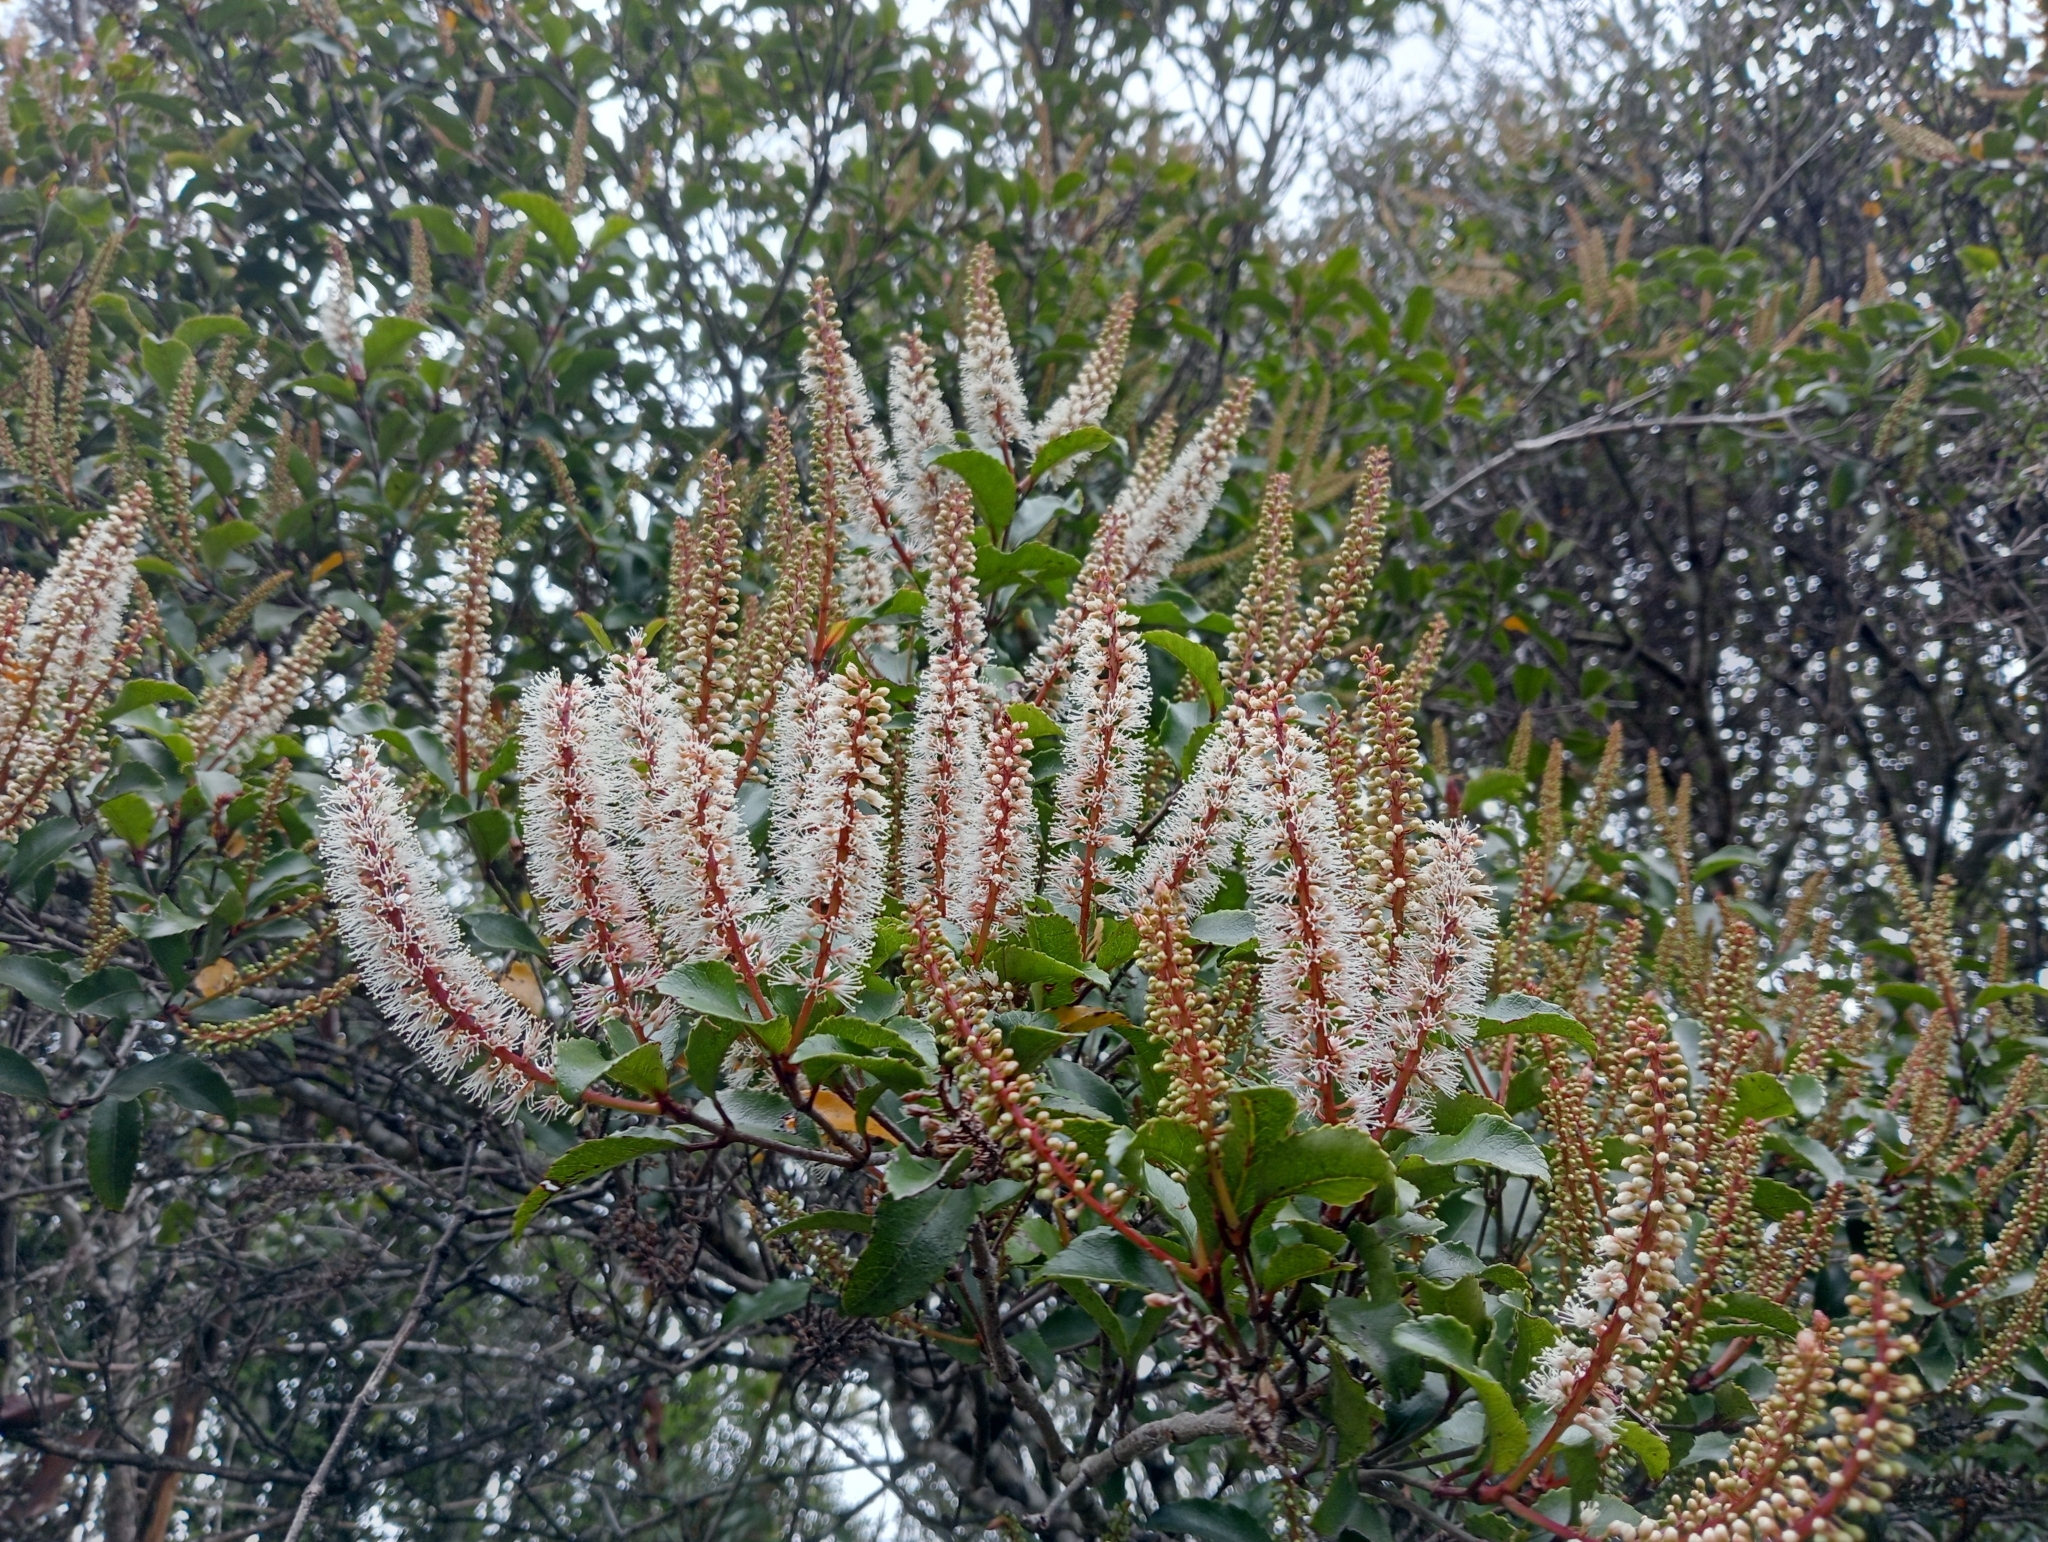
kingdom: Plantae
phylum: Tracheophyta
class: Magnoliopsida
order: Oxalidales
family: Cunoniaceae
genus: Pterophylla
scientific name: Pterophylla racemosa
